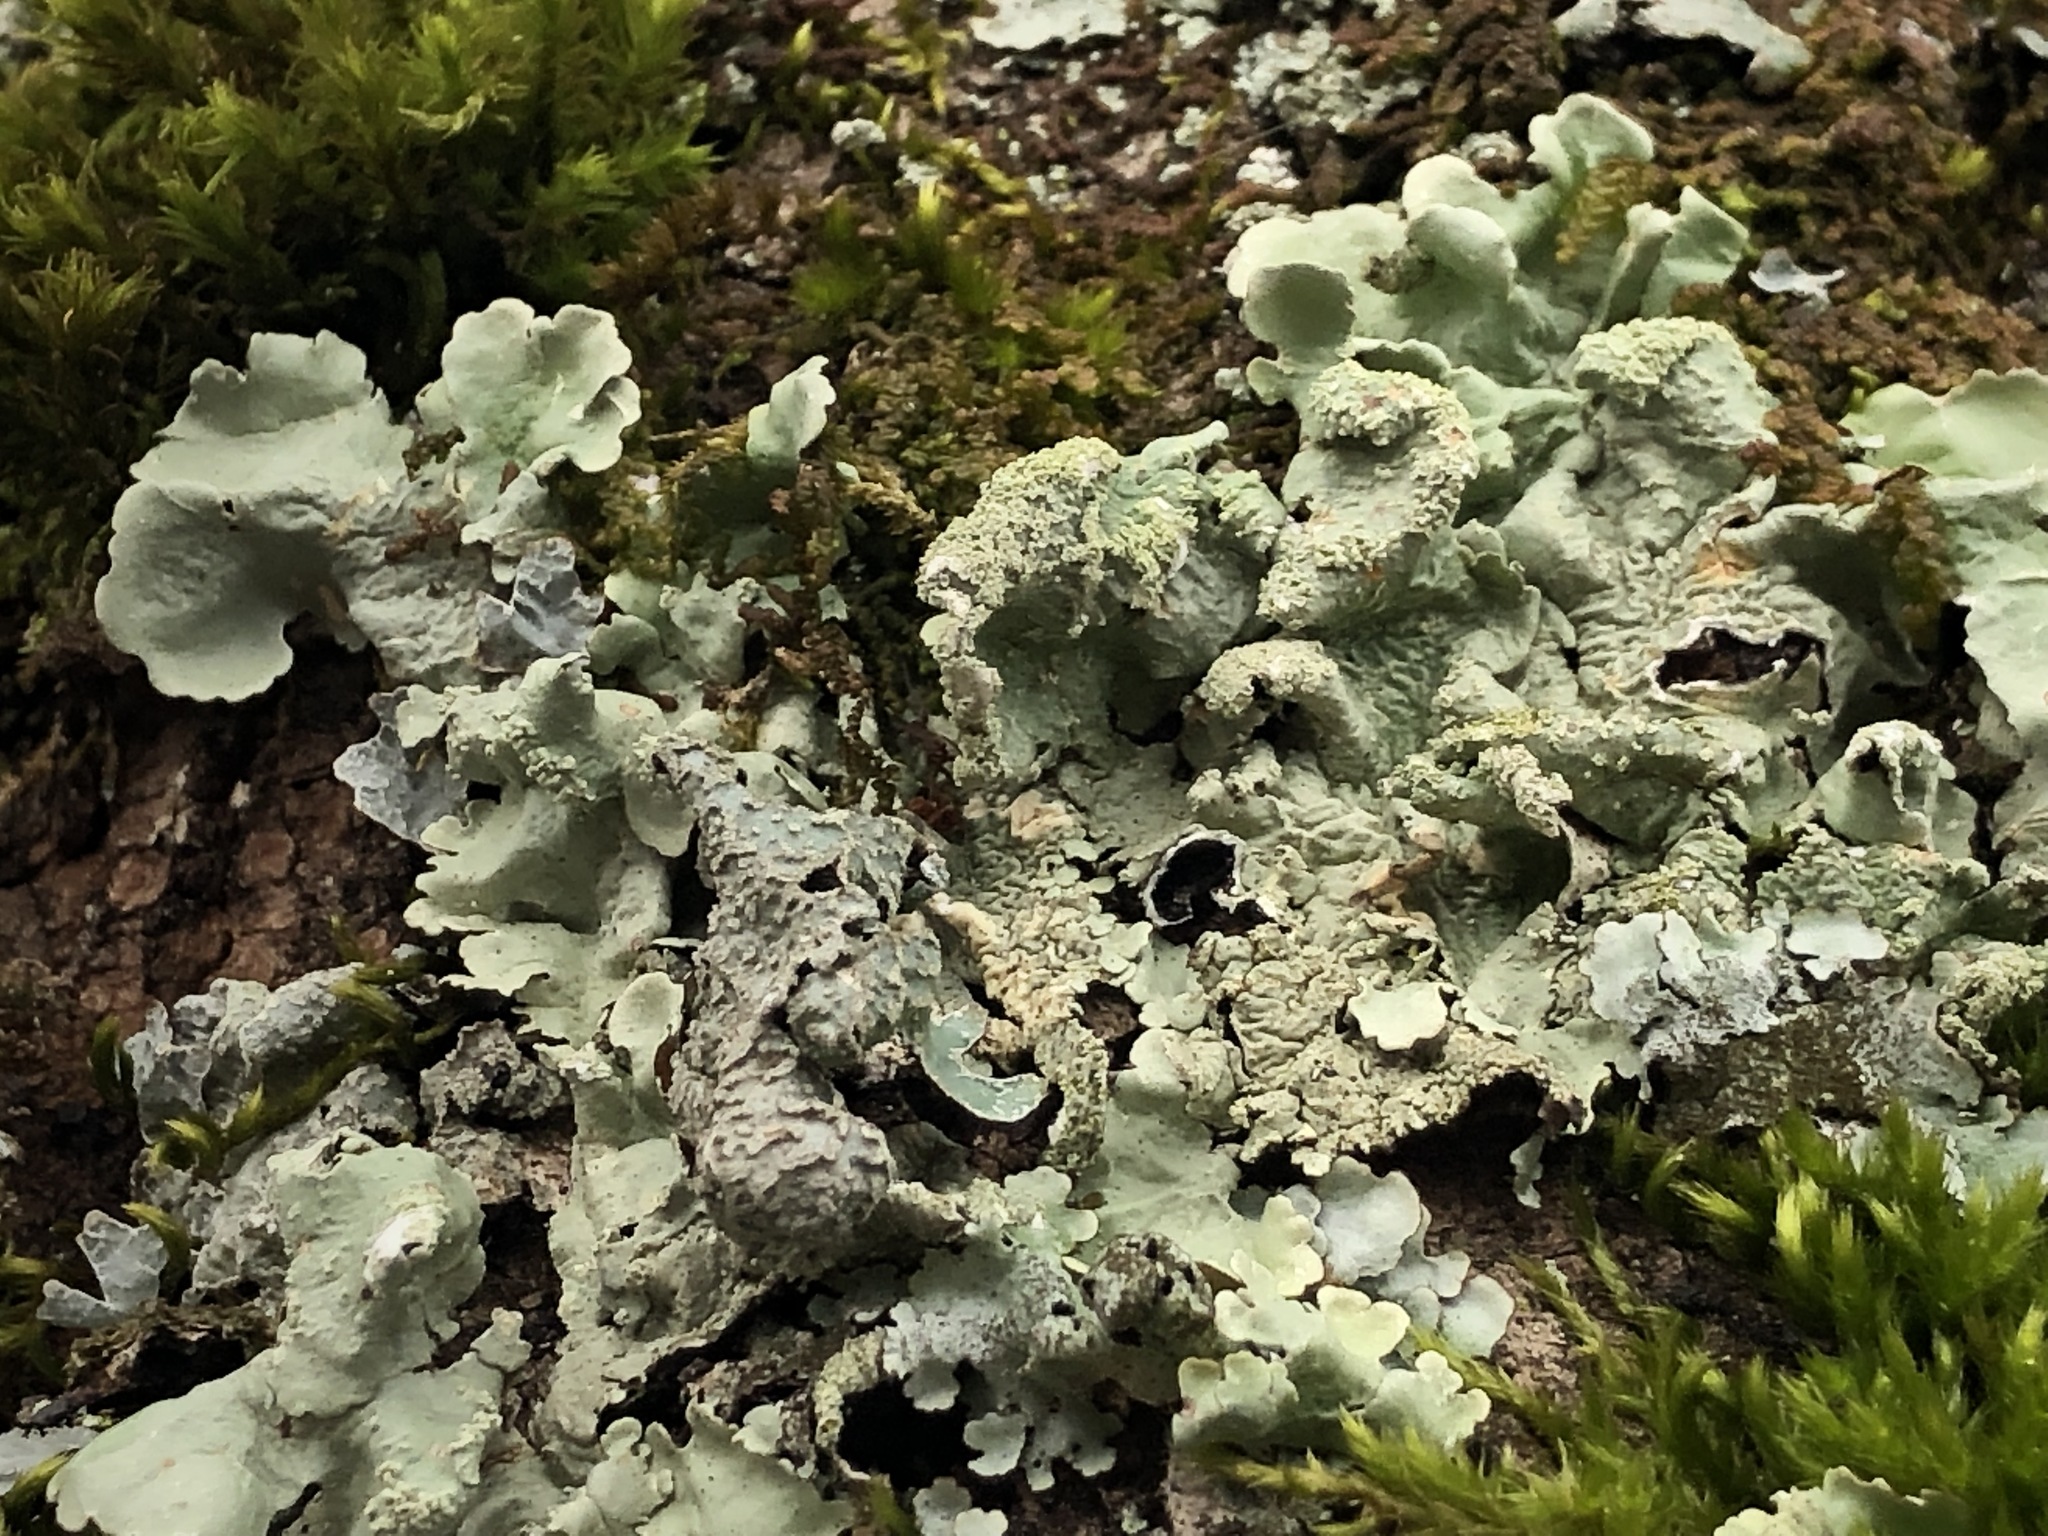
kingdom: Fungi
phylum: Ascomycota
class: Lecanoromycetes
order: Lecanorales
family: Parmeliaceae
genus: Flavoparmelia
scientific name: Flavoparmelia caperata
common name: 40-mile per hour lichen
